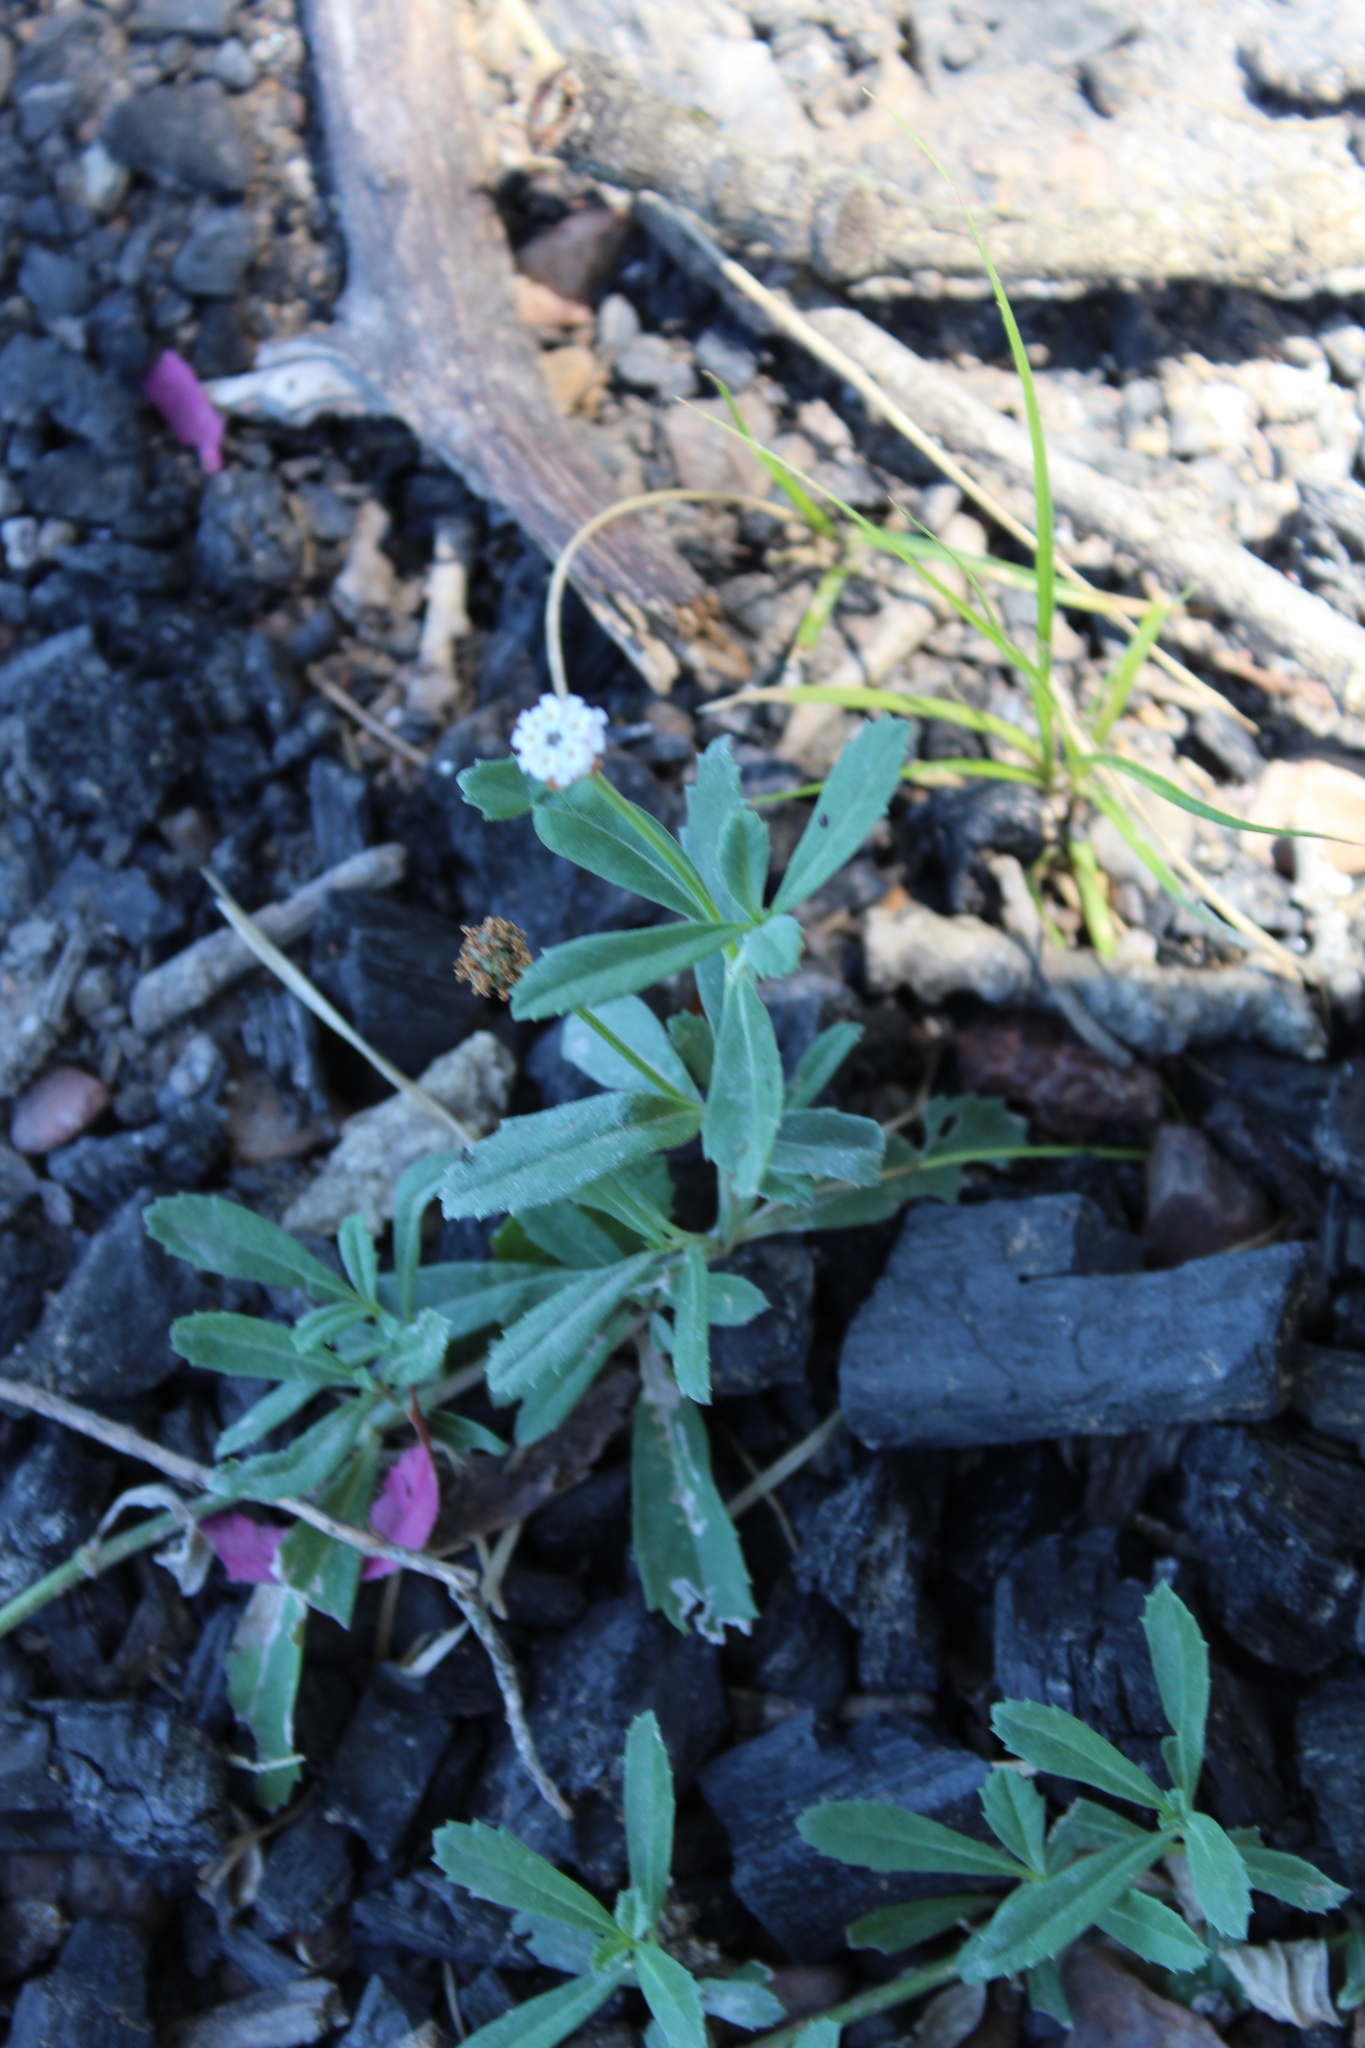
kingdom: Plantae
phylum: Tracheophyta
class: Magnoliopsida
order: Lamiales
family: Verbenaceae
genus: Phyla
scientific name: Phyla nodiflora
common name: Frogfruit
